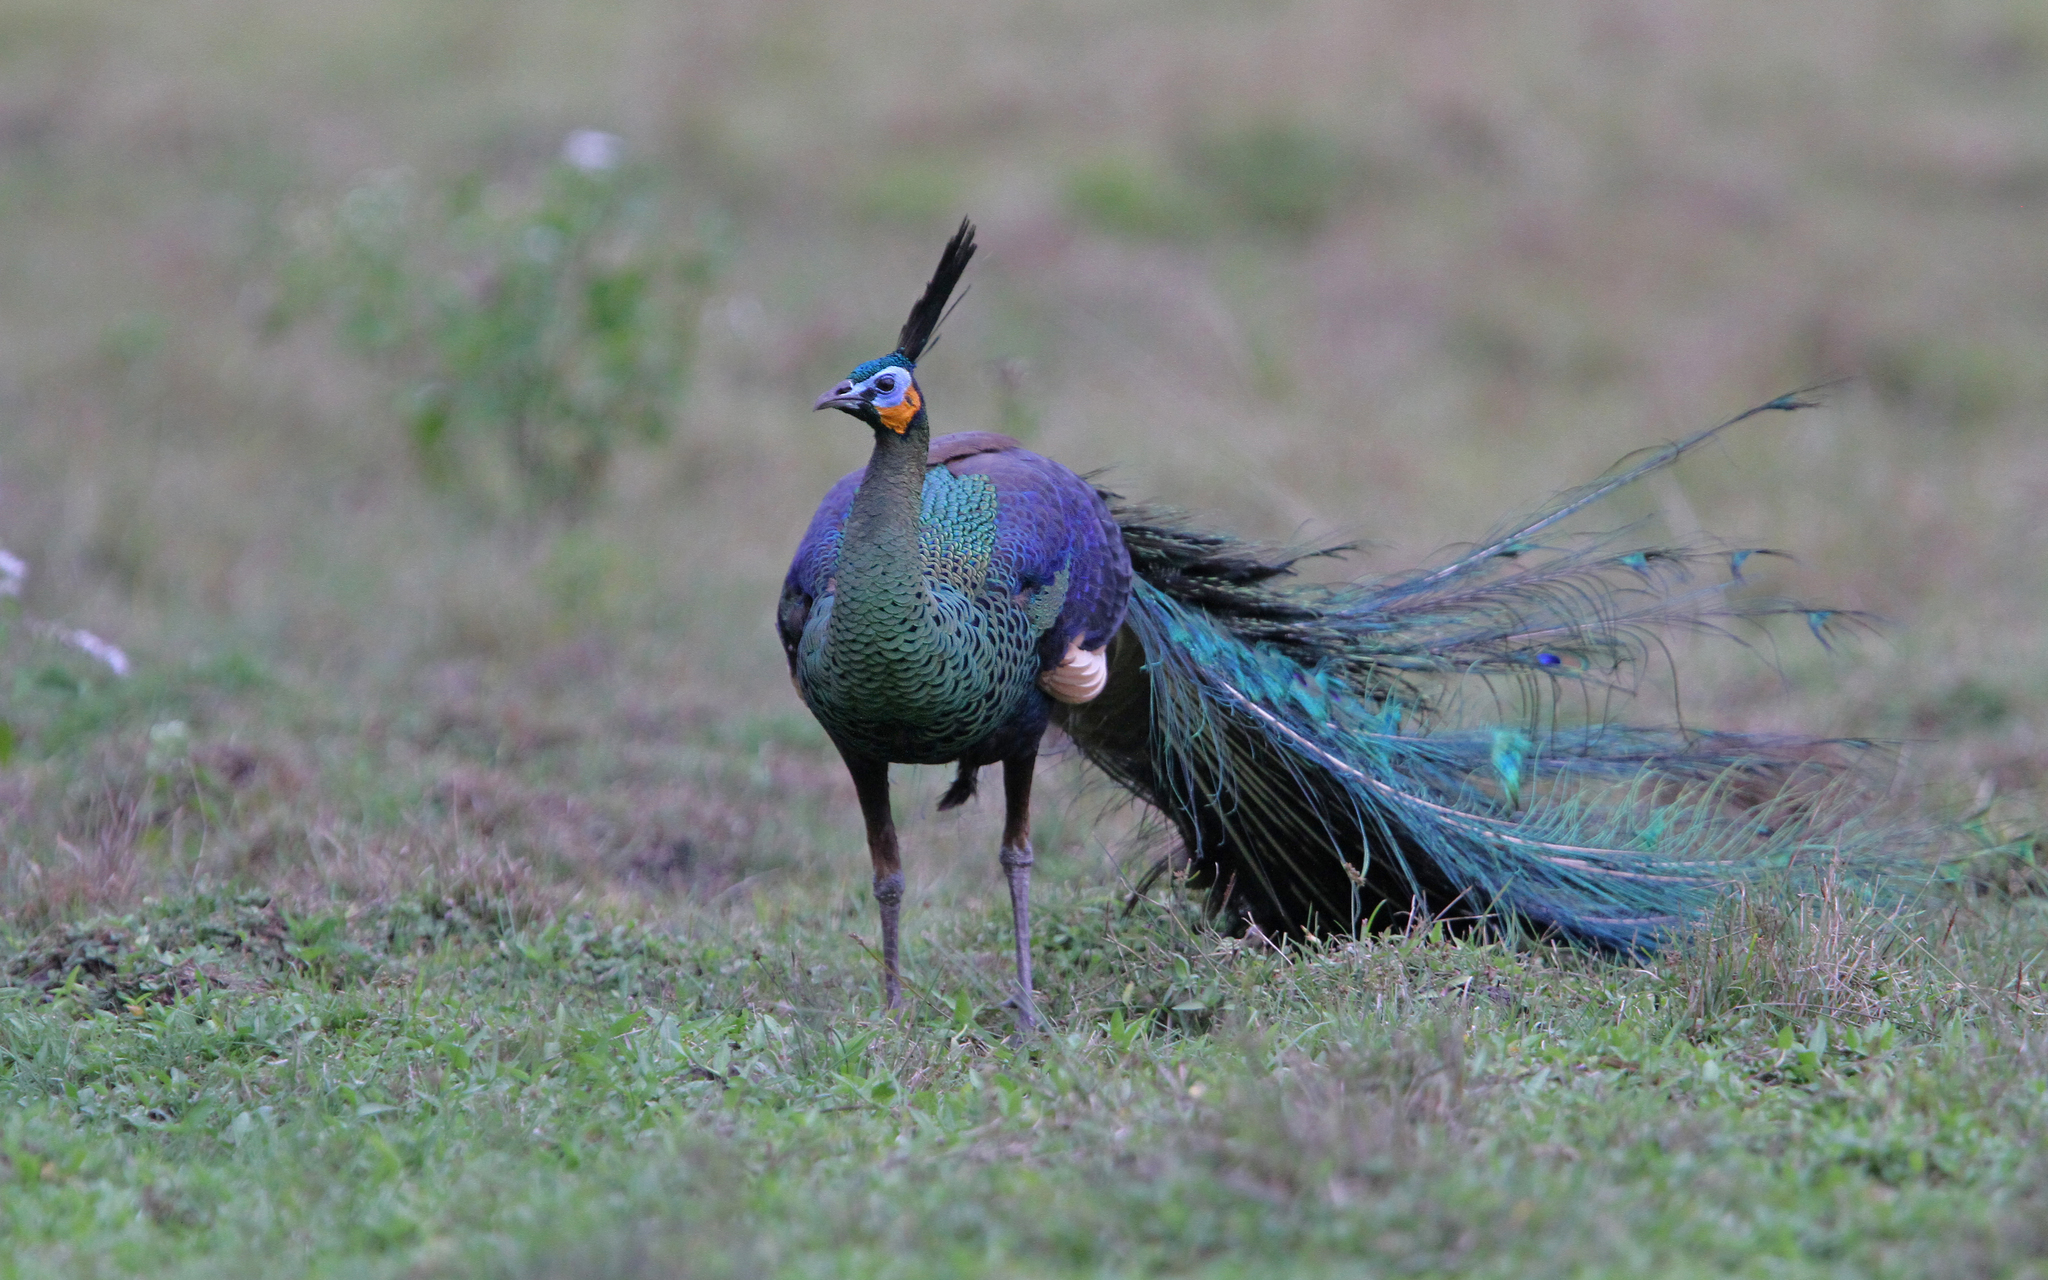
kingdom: Animalia
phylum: Chordata
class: Aves
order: Galliformes
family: Phasianidae
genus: Pavo
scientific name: Pavo muticus
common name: Green peafowl
